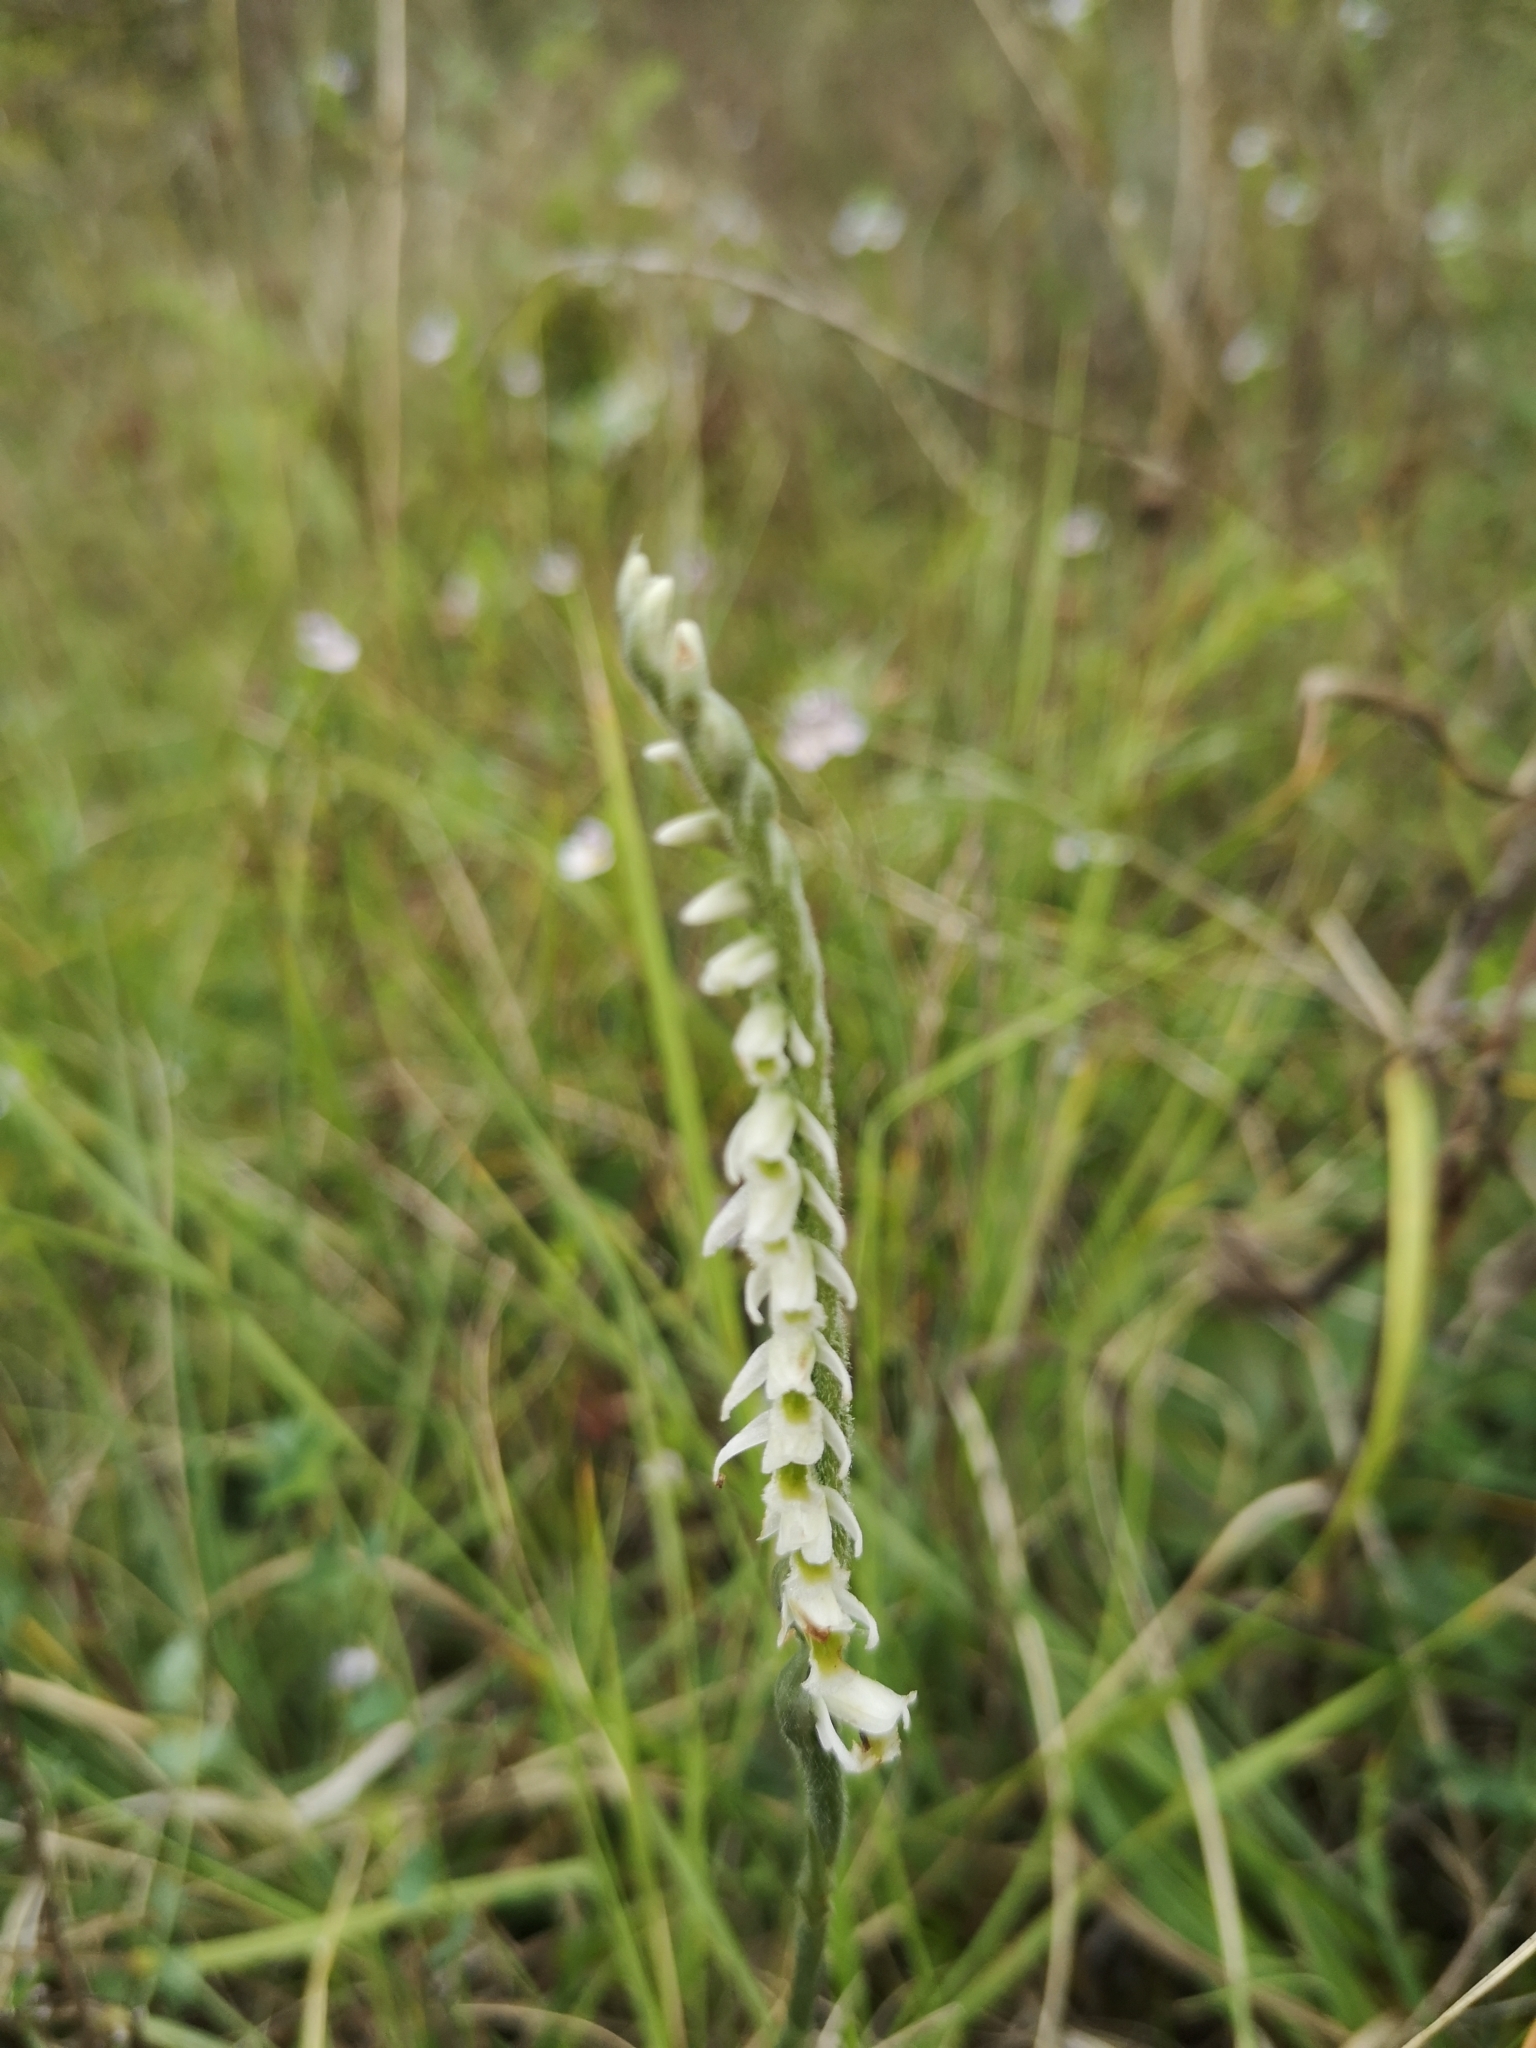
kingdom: Plantae
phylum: Tracheophyta
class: Liliopsida
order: Asparagales
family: Orchidaceae
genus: Spiranthes
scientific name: Spiranthes spiralis
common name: Autumn lady's-tresses
